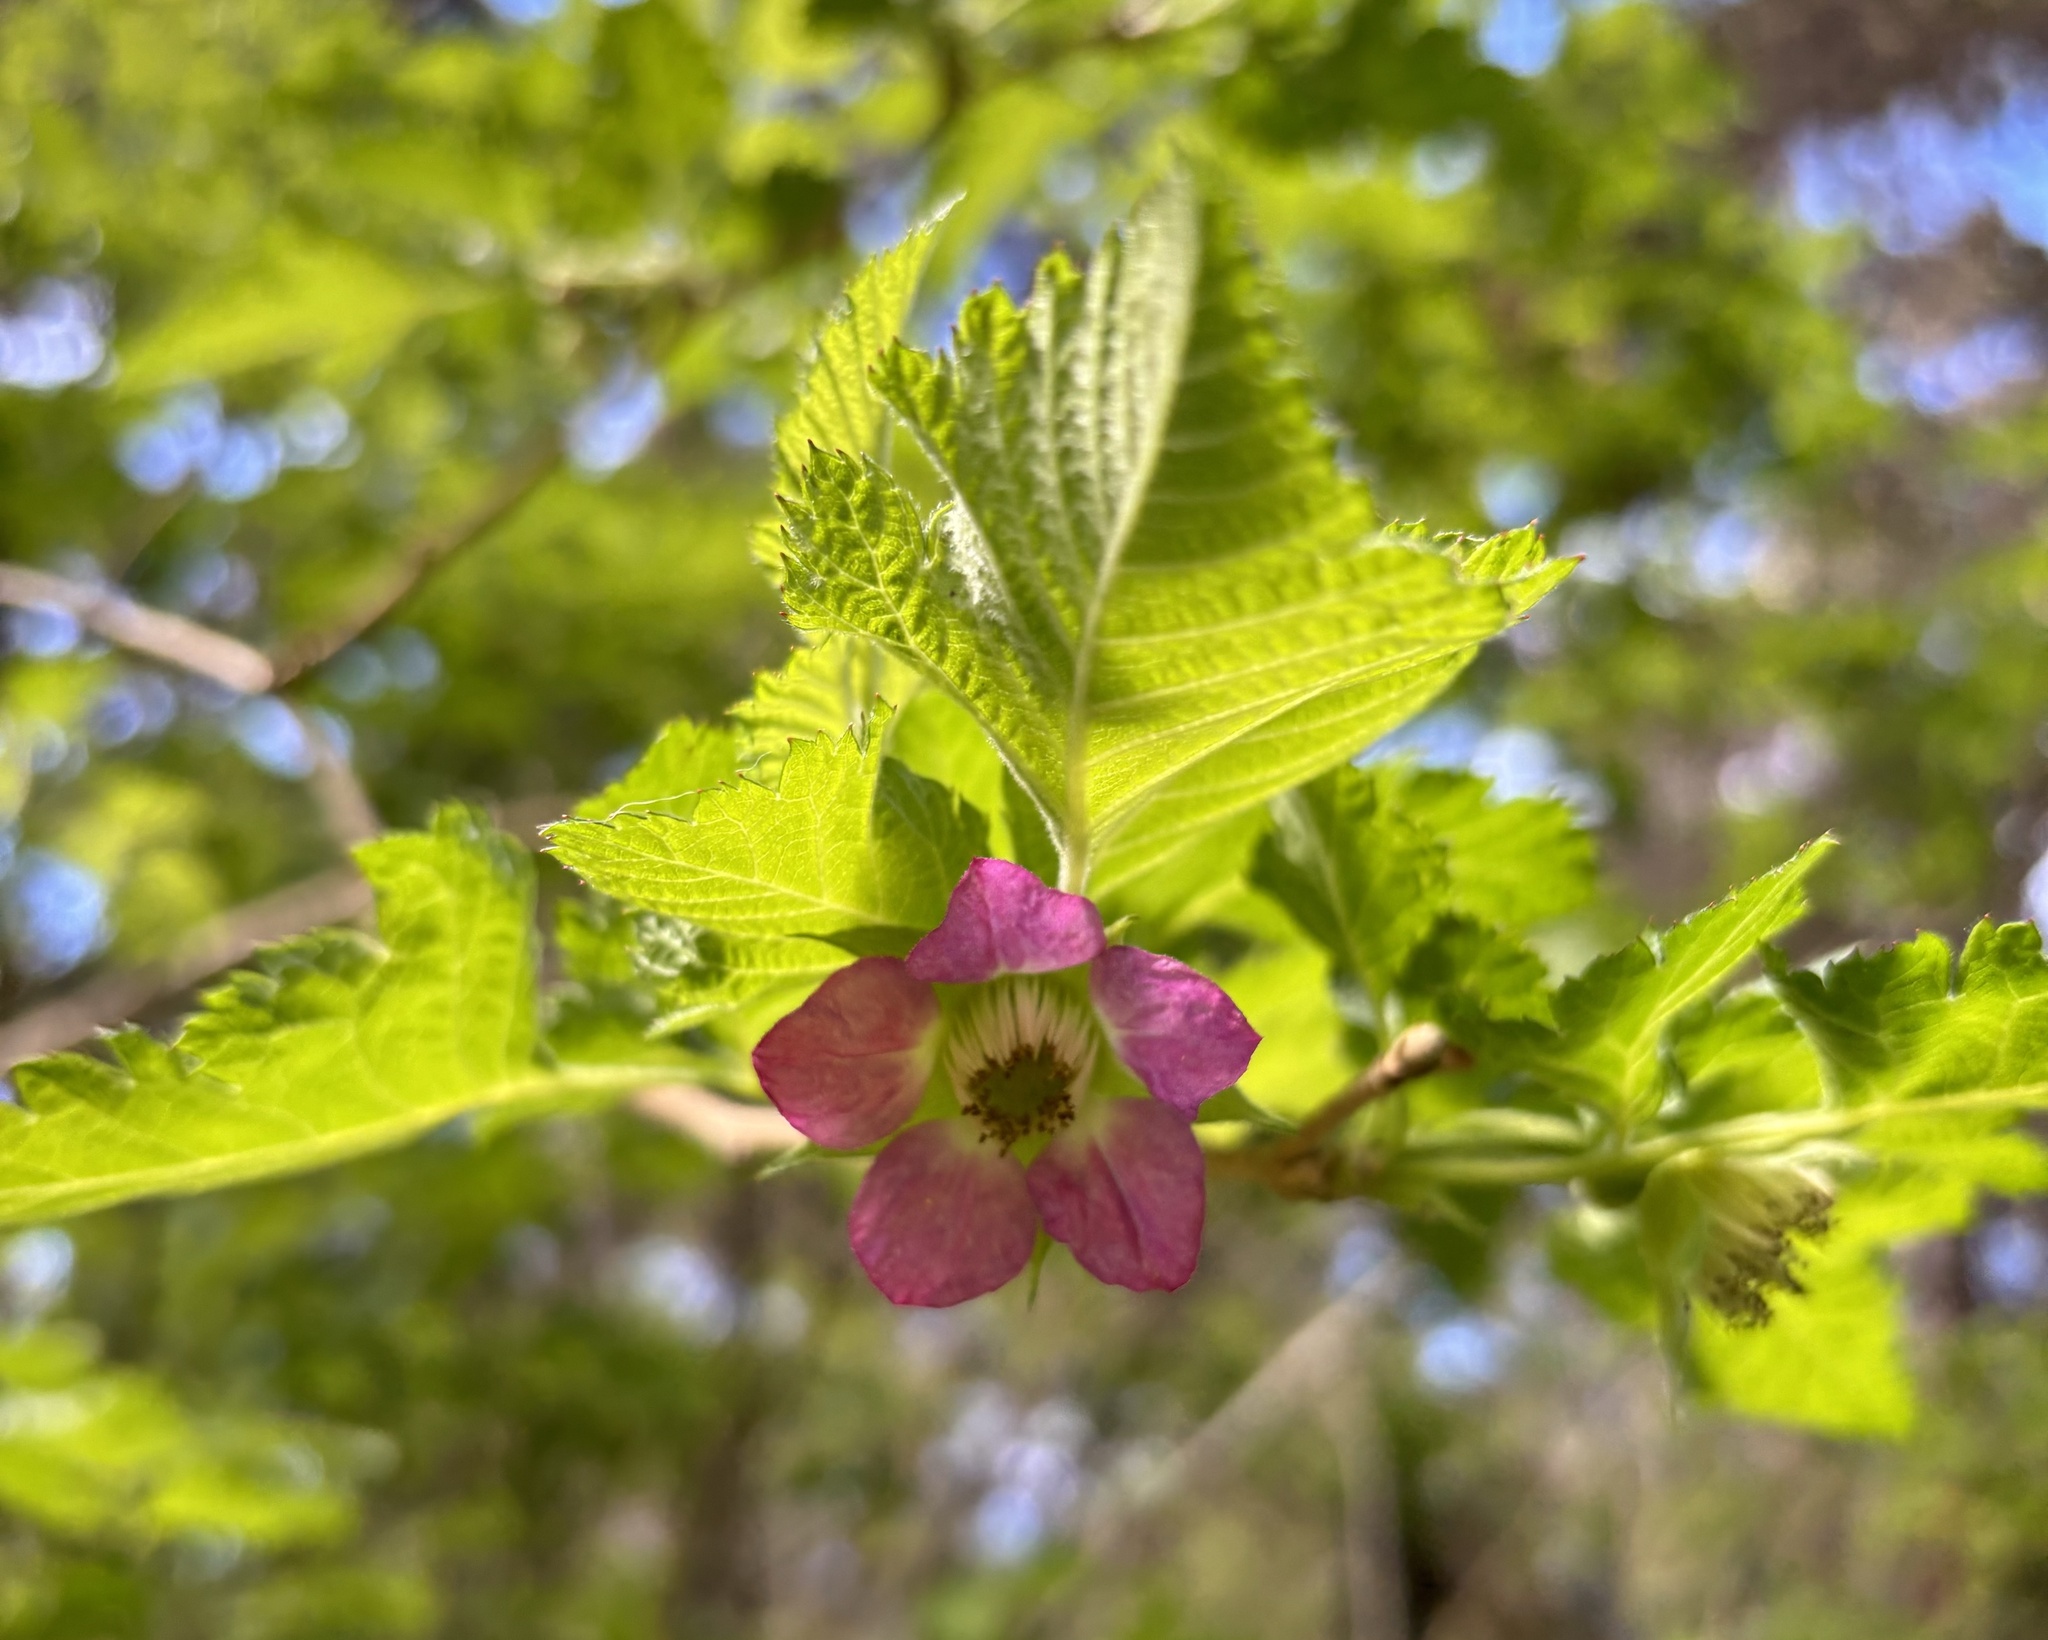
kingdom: Plantae
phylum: Tracheophyta
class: Magnoliopsida
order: Rosales
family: Rosaceae
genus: Rubus
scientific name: Rubus hawaiensis
